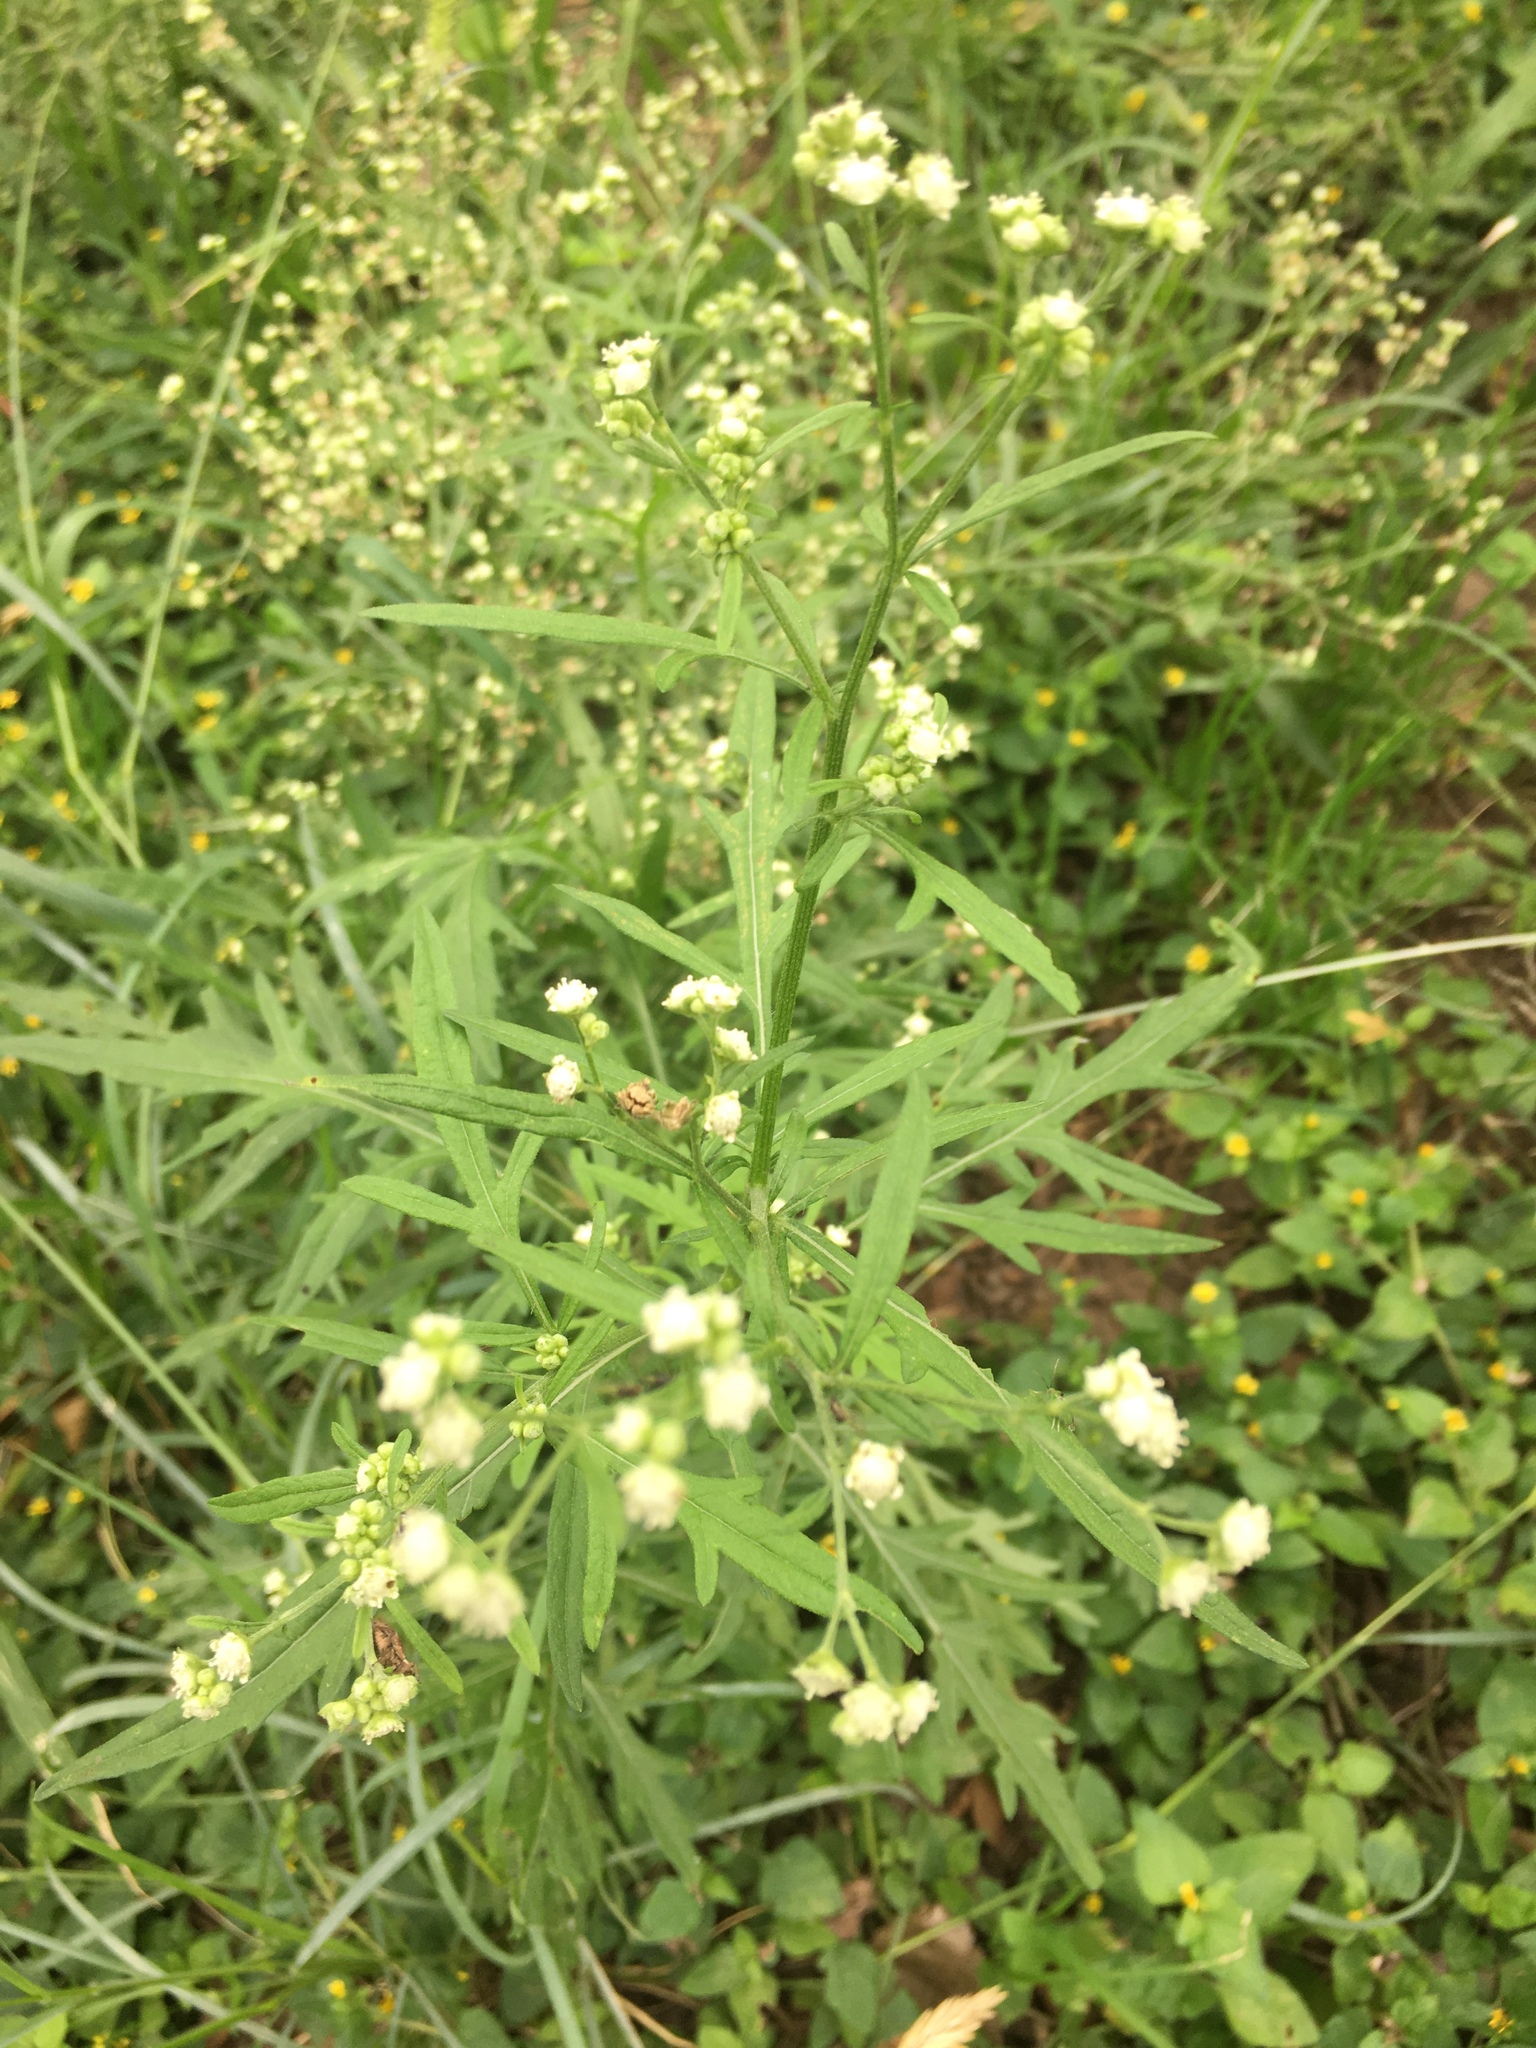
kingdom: Plantae
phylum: Tracheophyta
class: Magnoliopsida
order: Asterales
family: Asteraceae
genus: Parthenium
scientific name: Parthenium hysterophorus
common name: Santa maria feverfew
